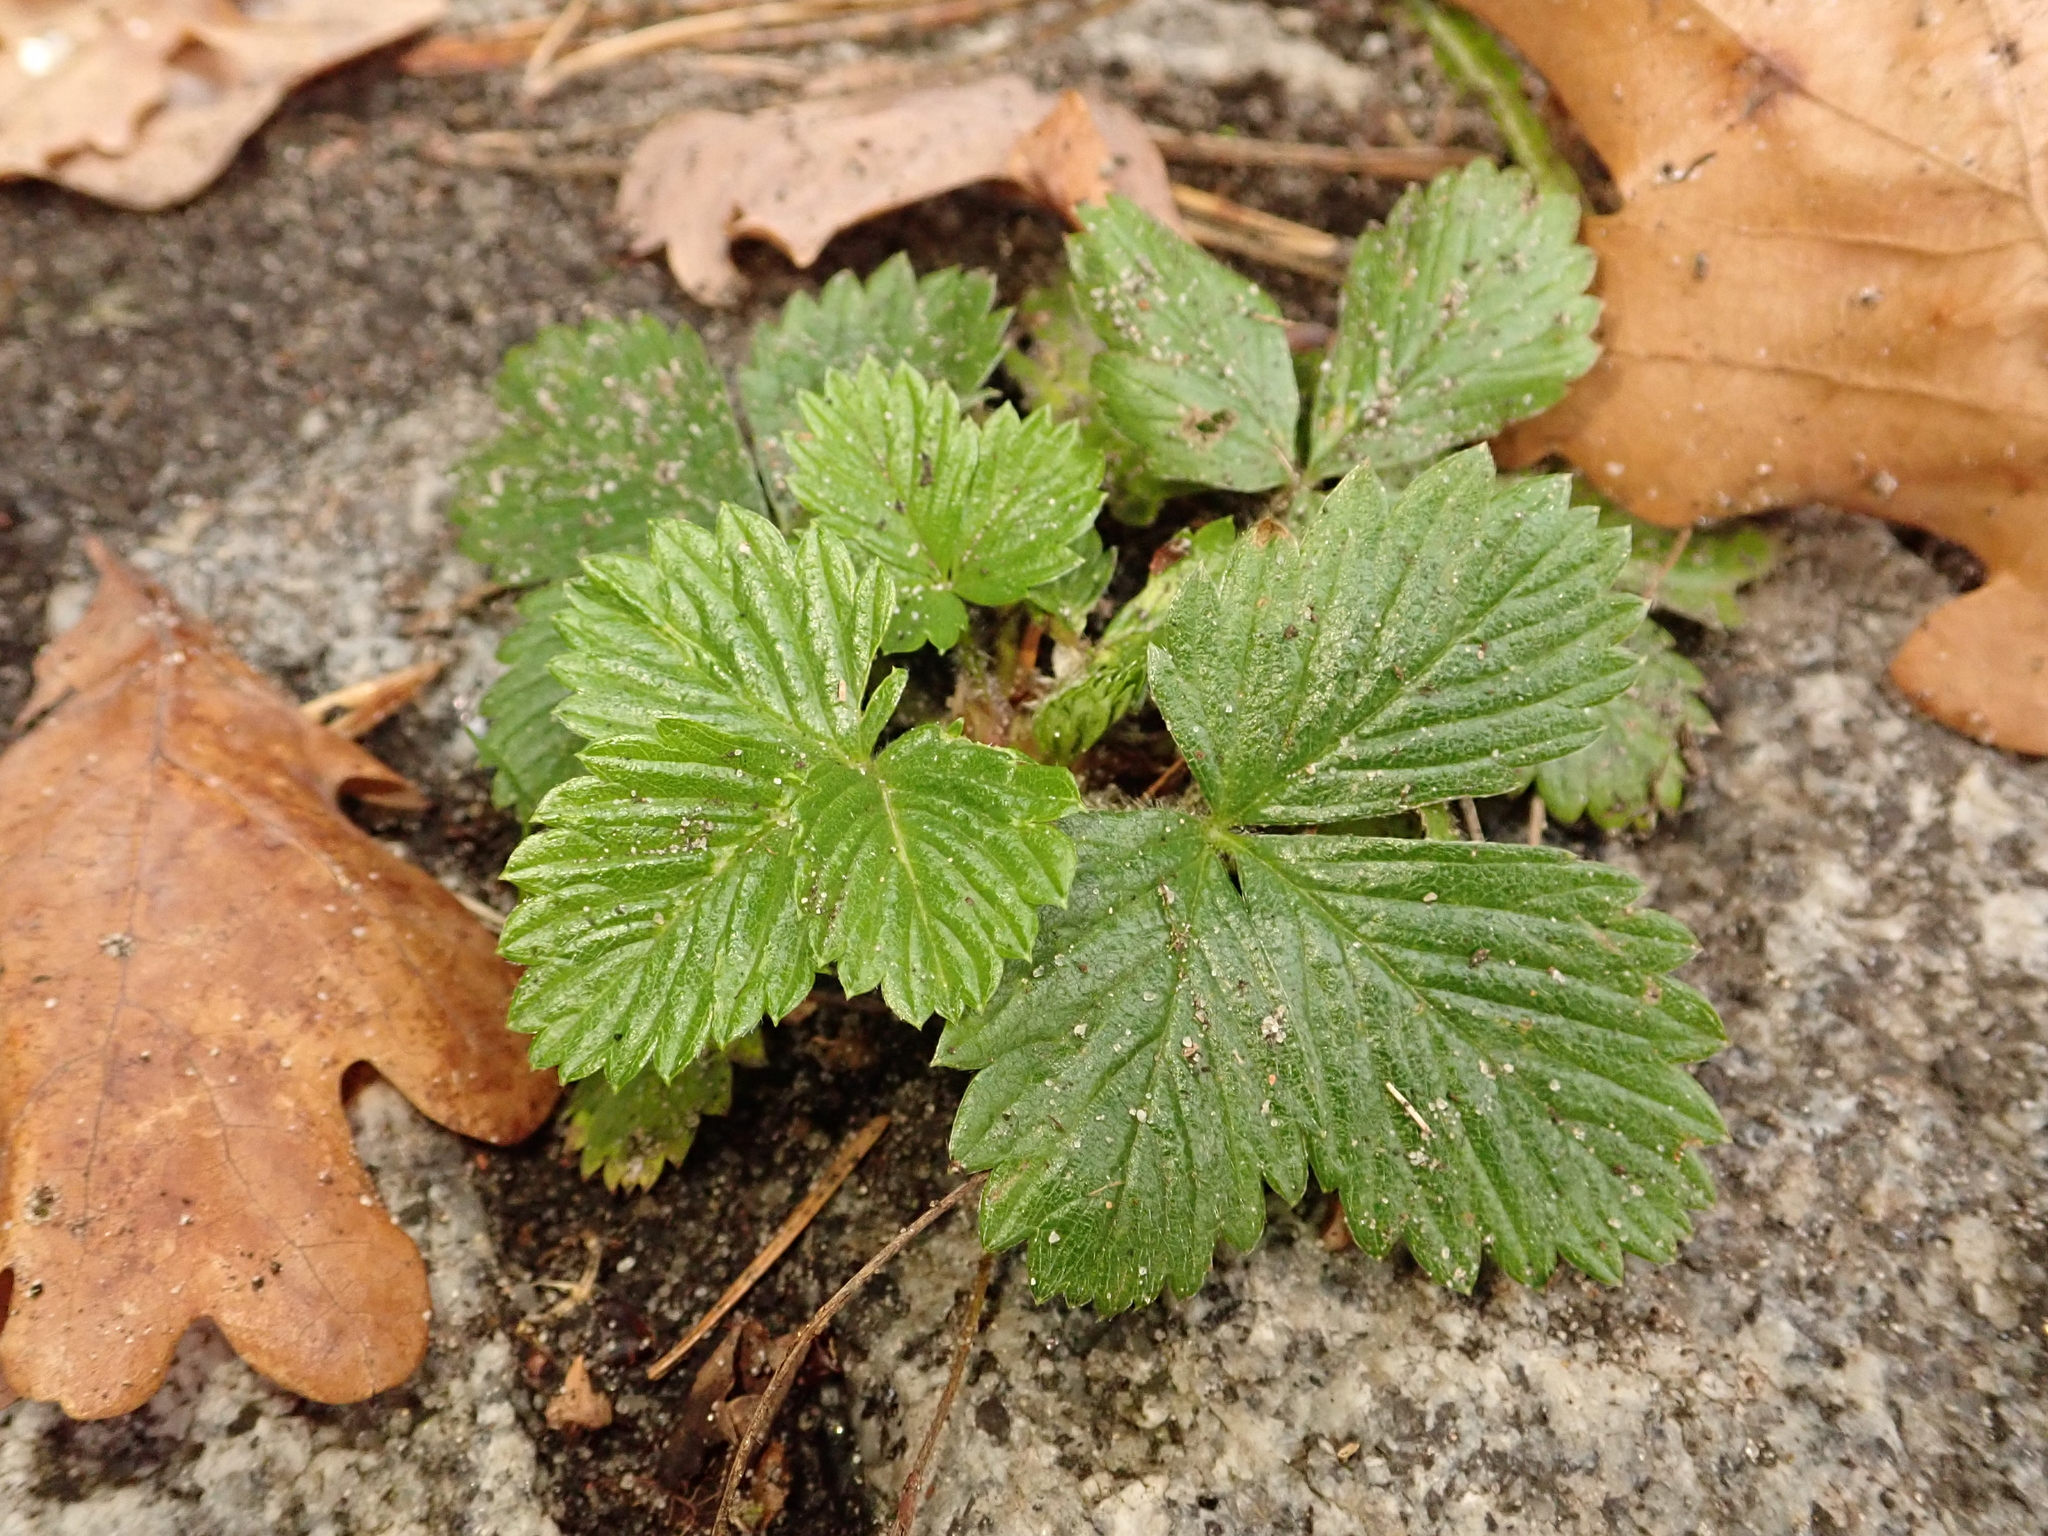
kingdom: Plantae
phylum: Tracheophyta
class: Magnoliopsida
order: Rosales
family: Rosaceae
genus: Fragaria
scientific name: Fragaria vesca
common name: Wild strawberry
